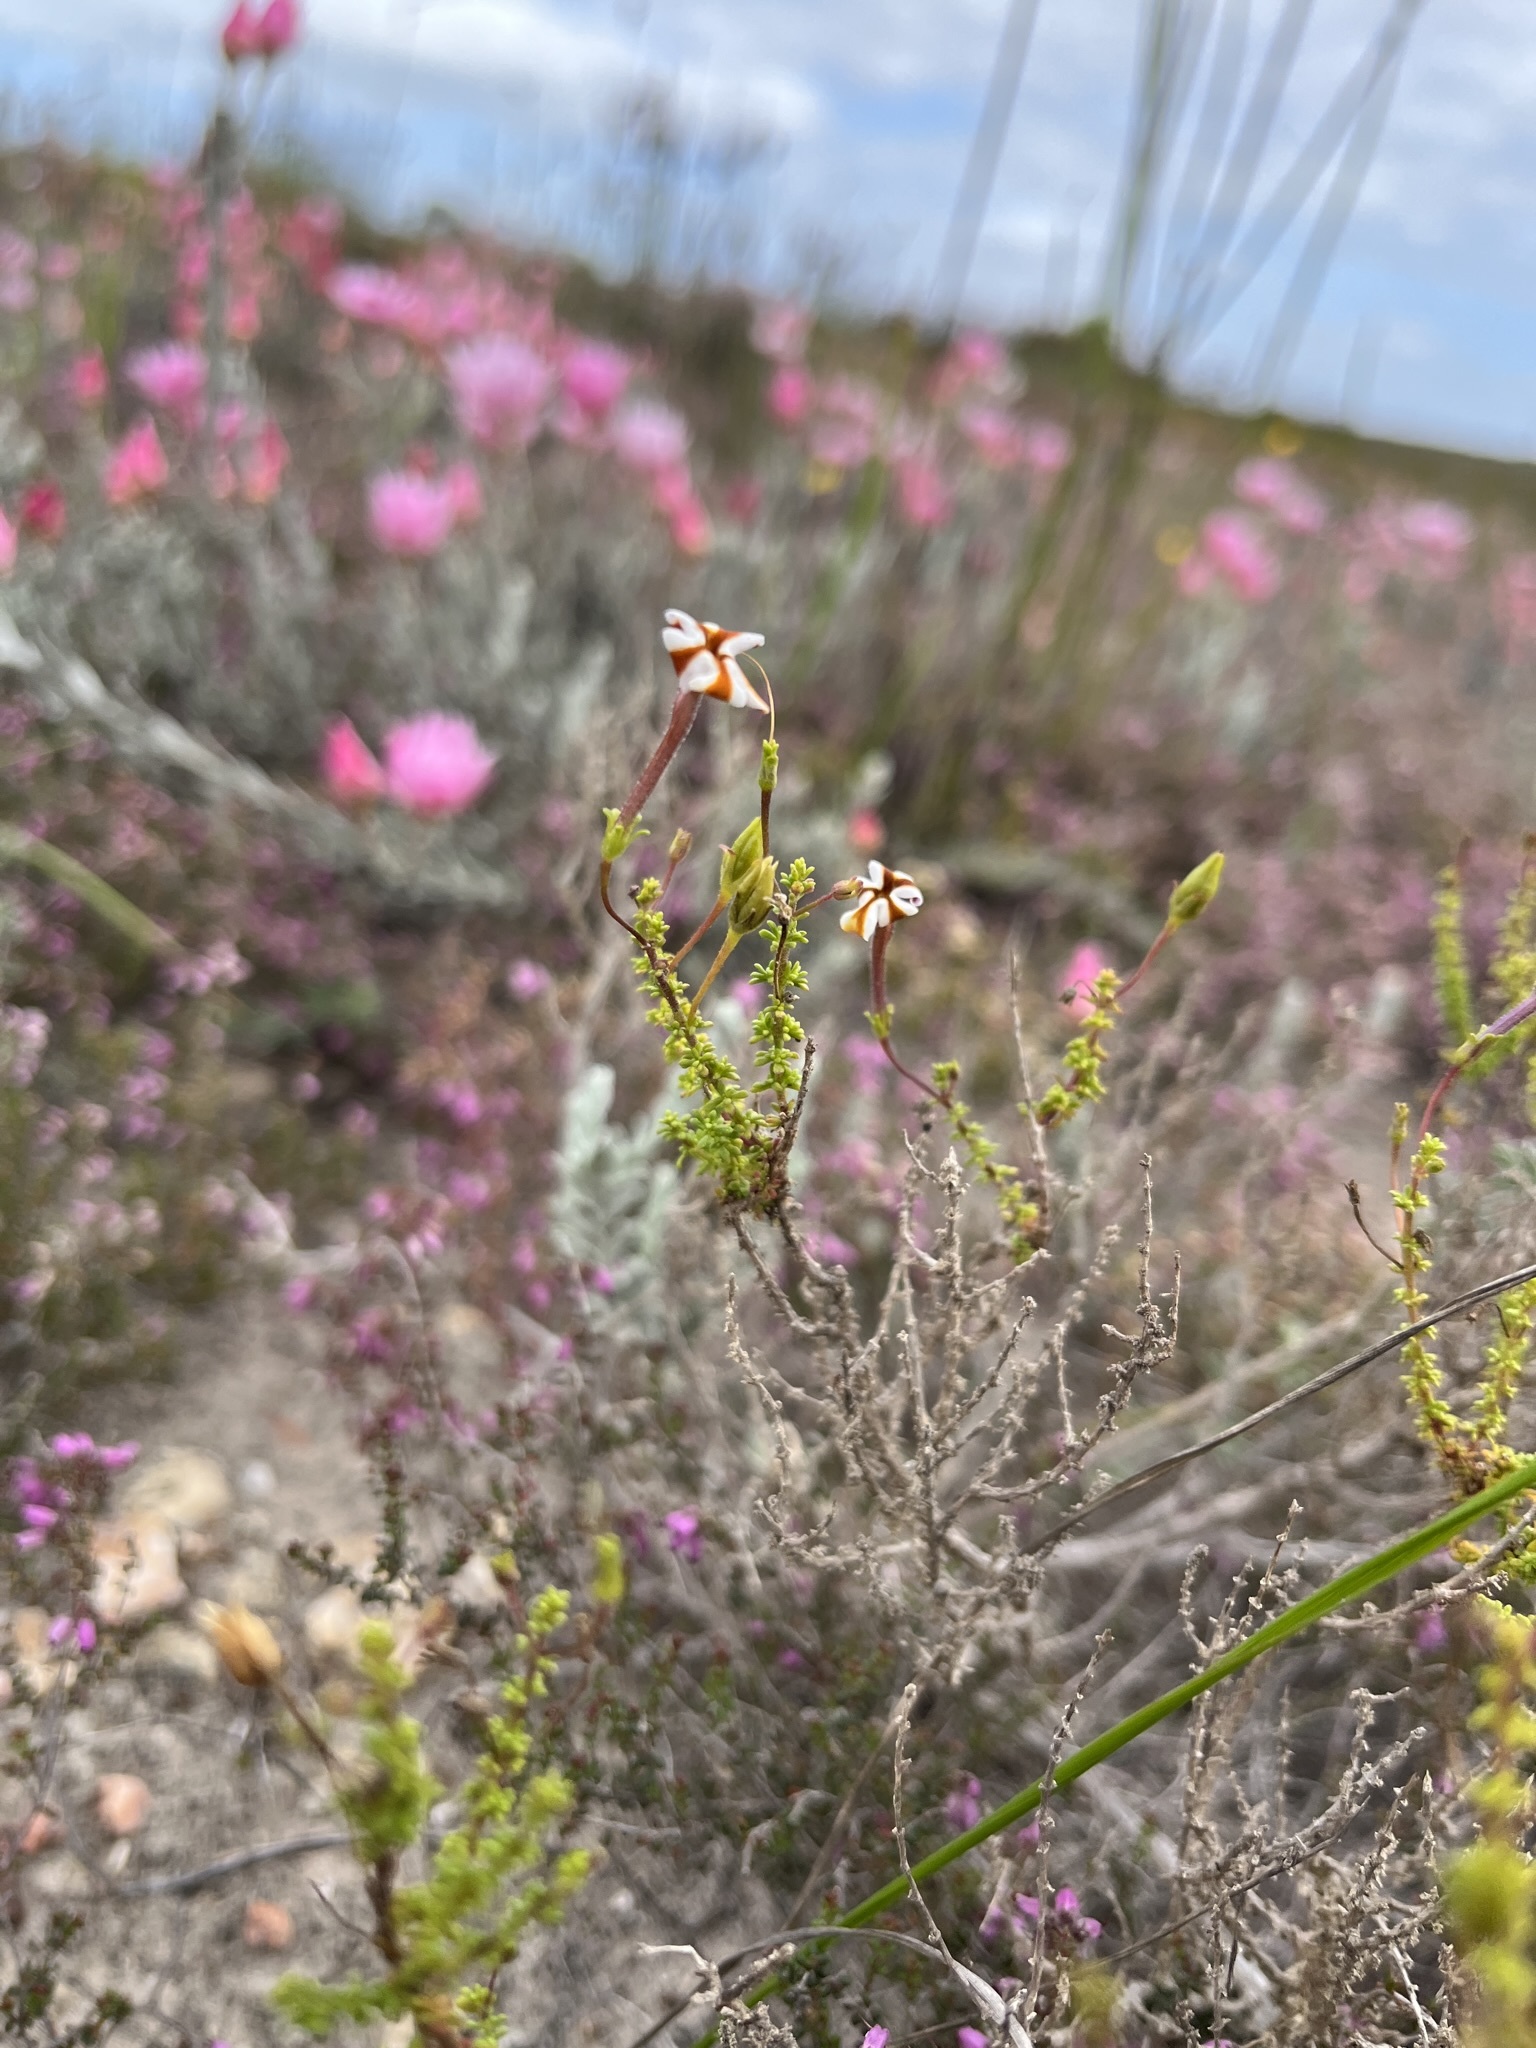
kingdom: Plantae
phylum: Tracheophyta
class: Magnoliopsida
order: Lamiales
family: Scrophulariaceae
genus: Jamesbrittenia
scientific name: Jamesbrittenia albomarginata
